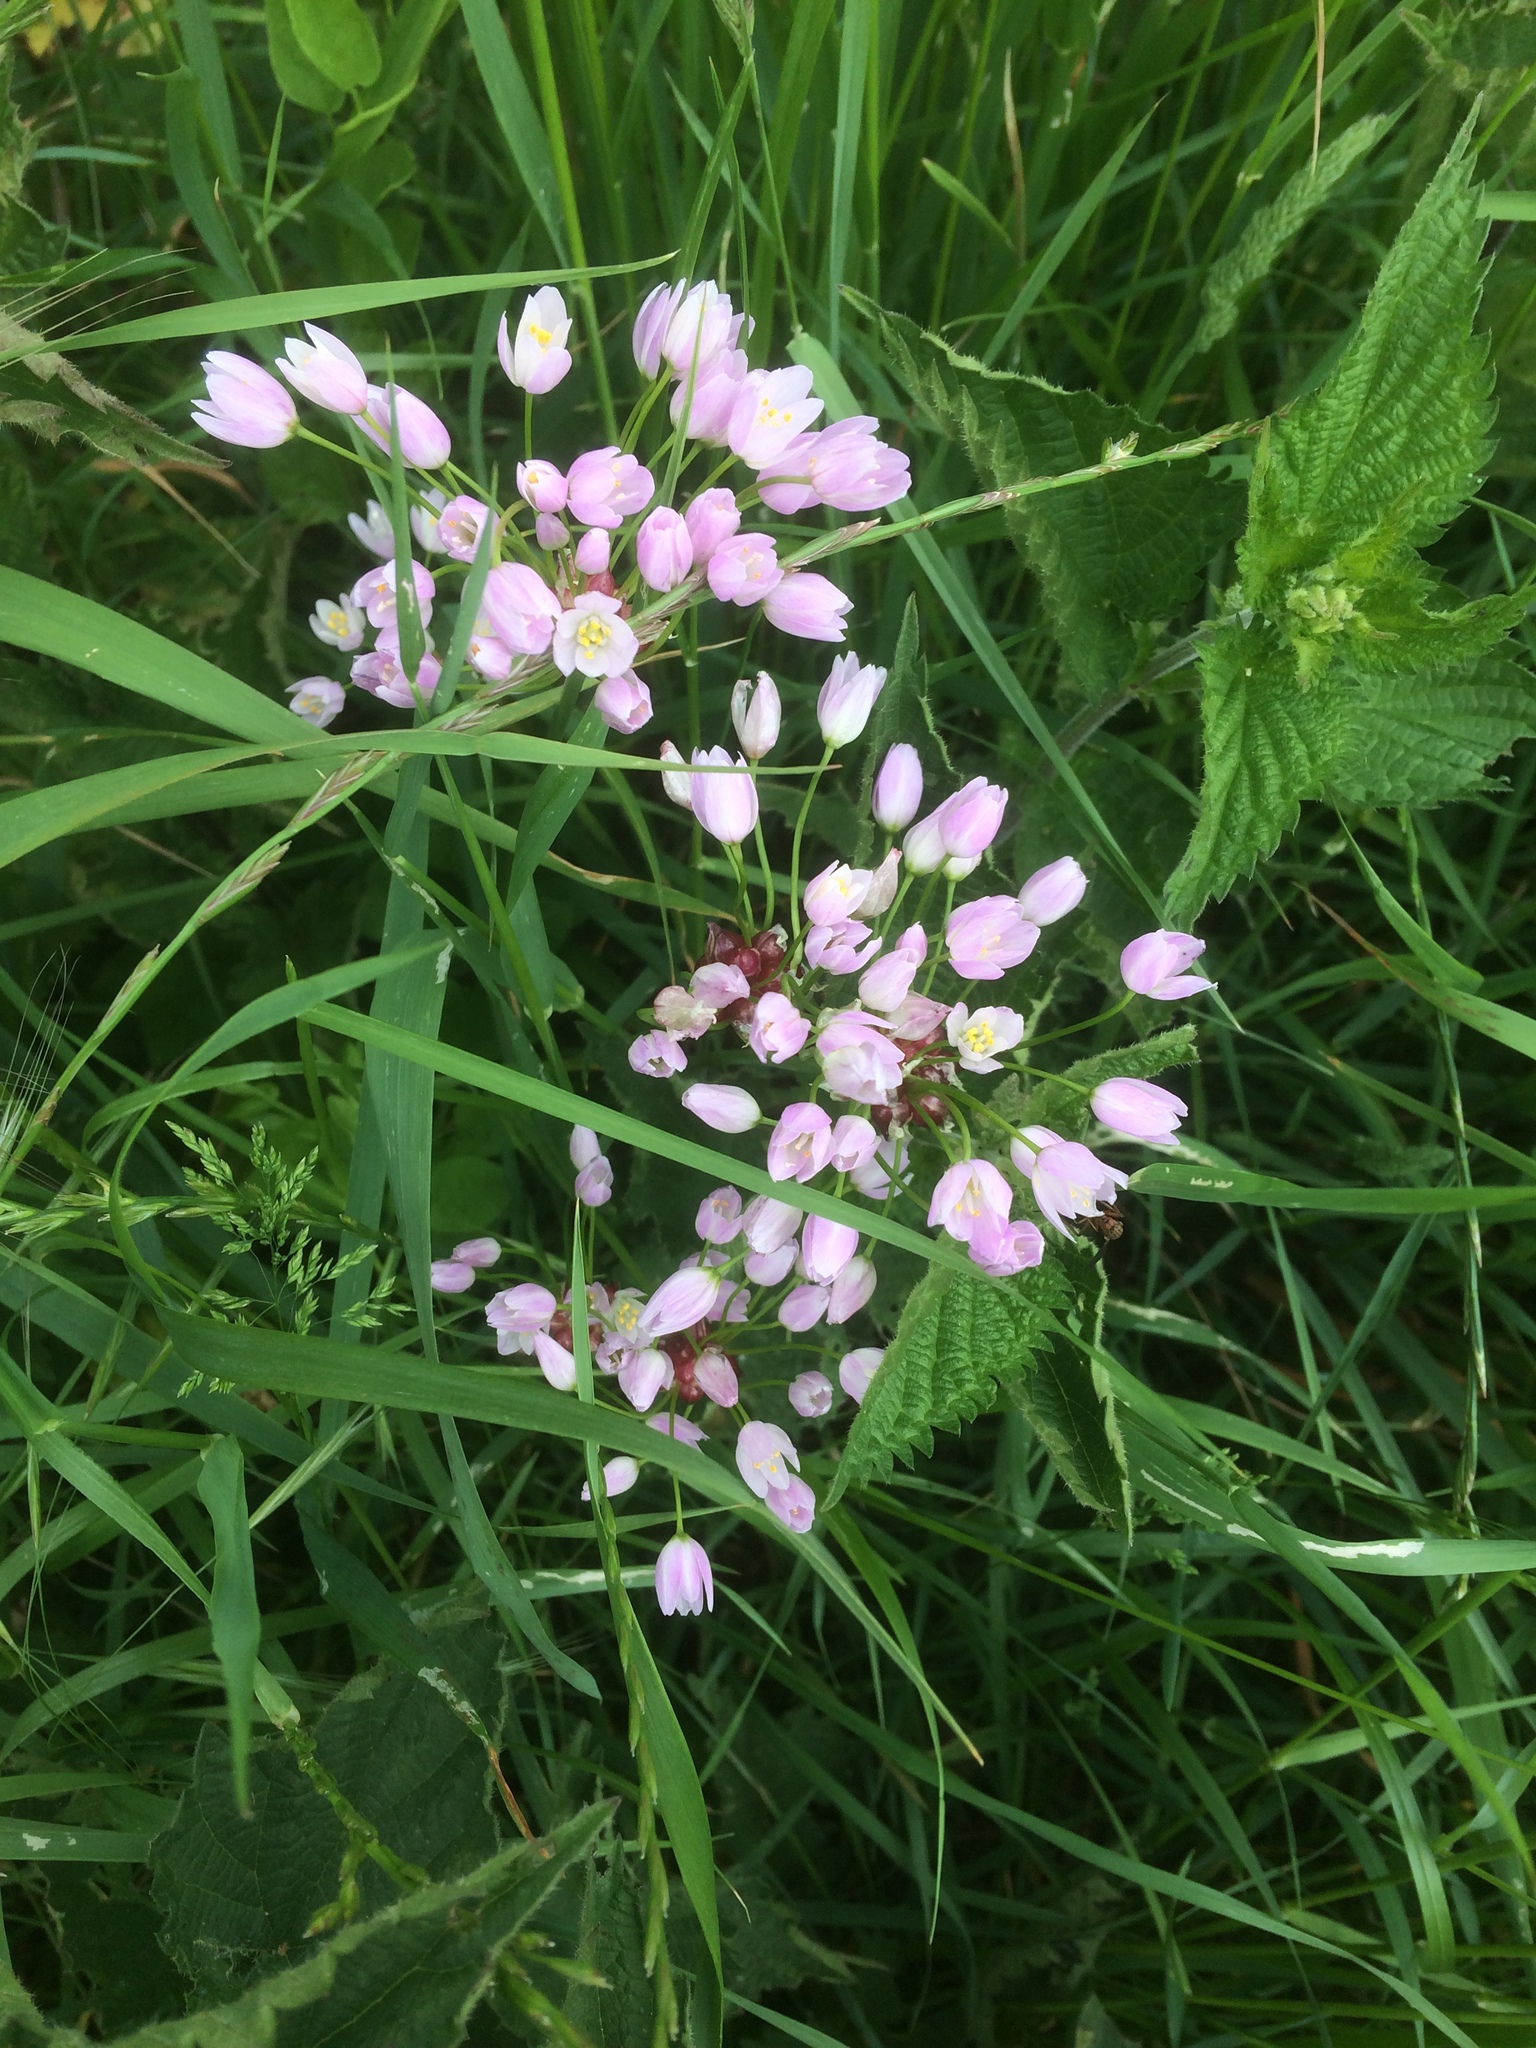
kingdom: Plantae
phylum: Tracheophyta
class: Liliopsida
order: Asparagales
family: Amaryllidaceae
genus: Allium
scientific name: Allium roseum
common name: Rosy garlic
